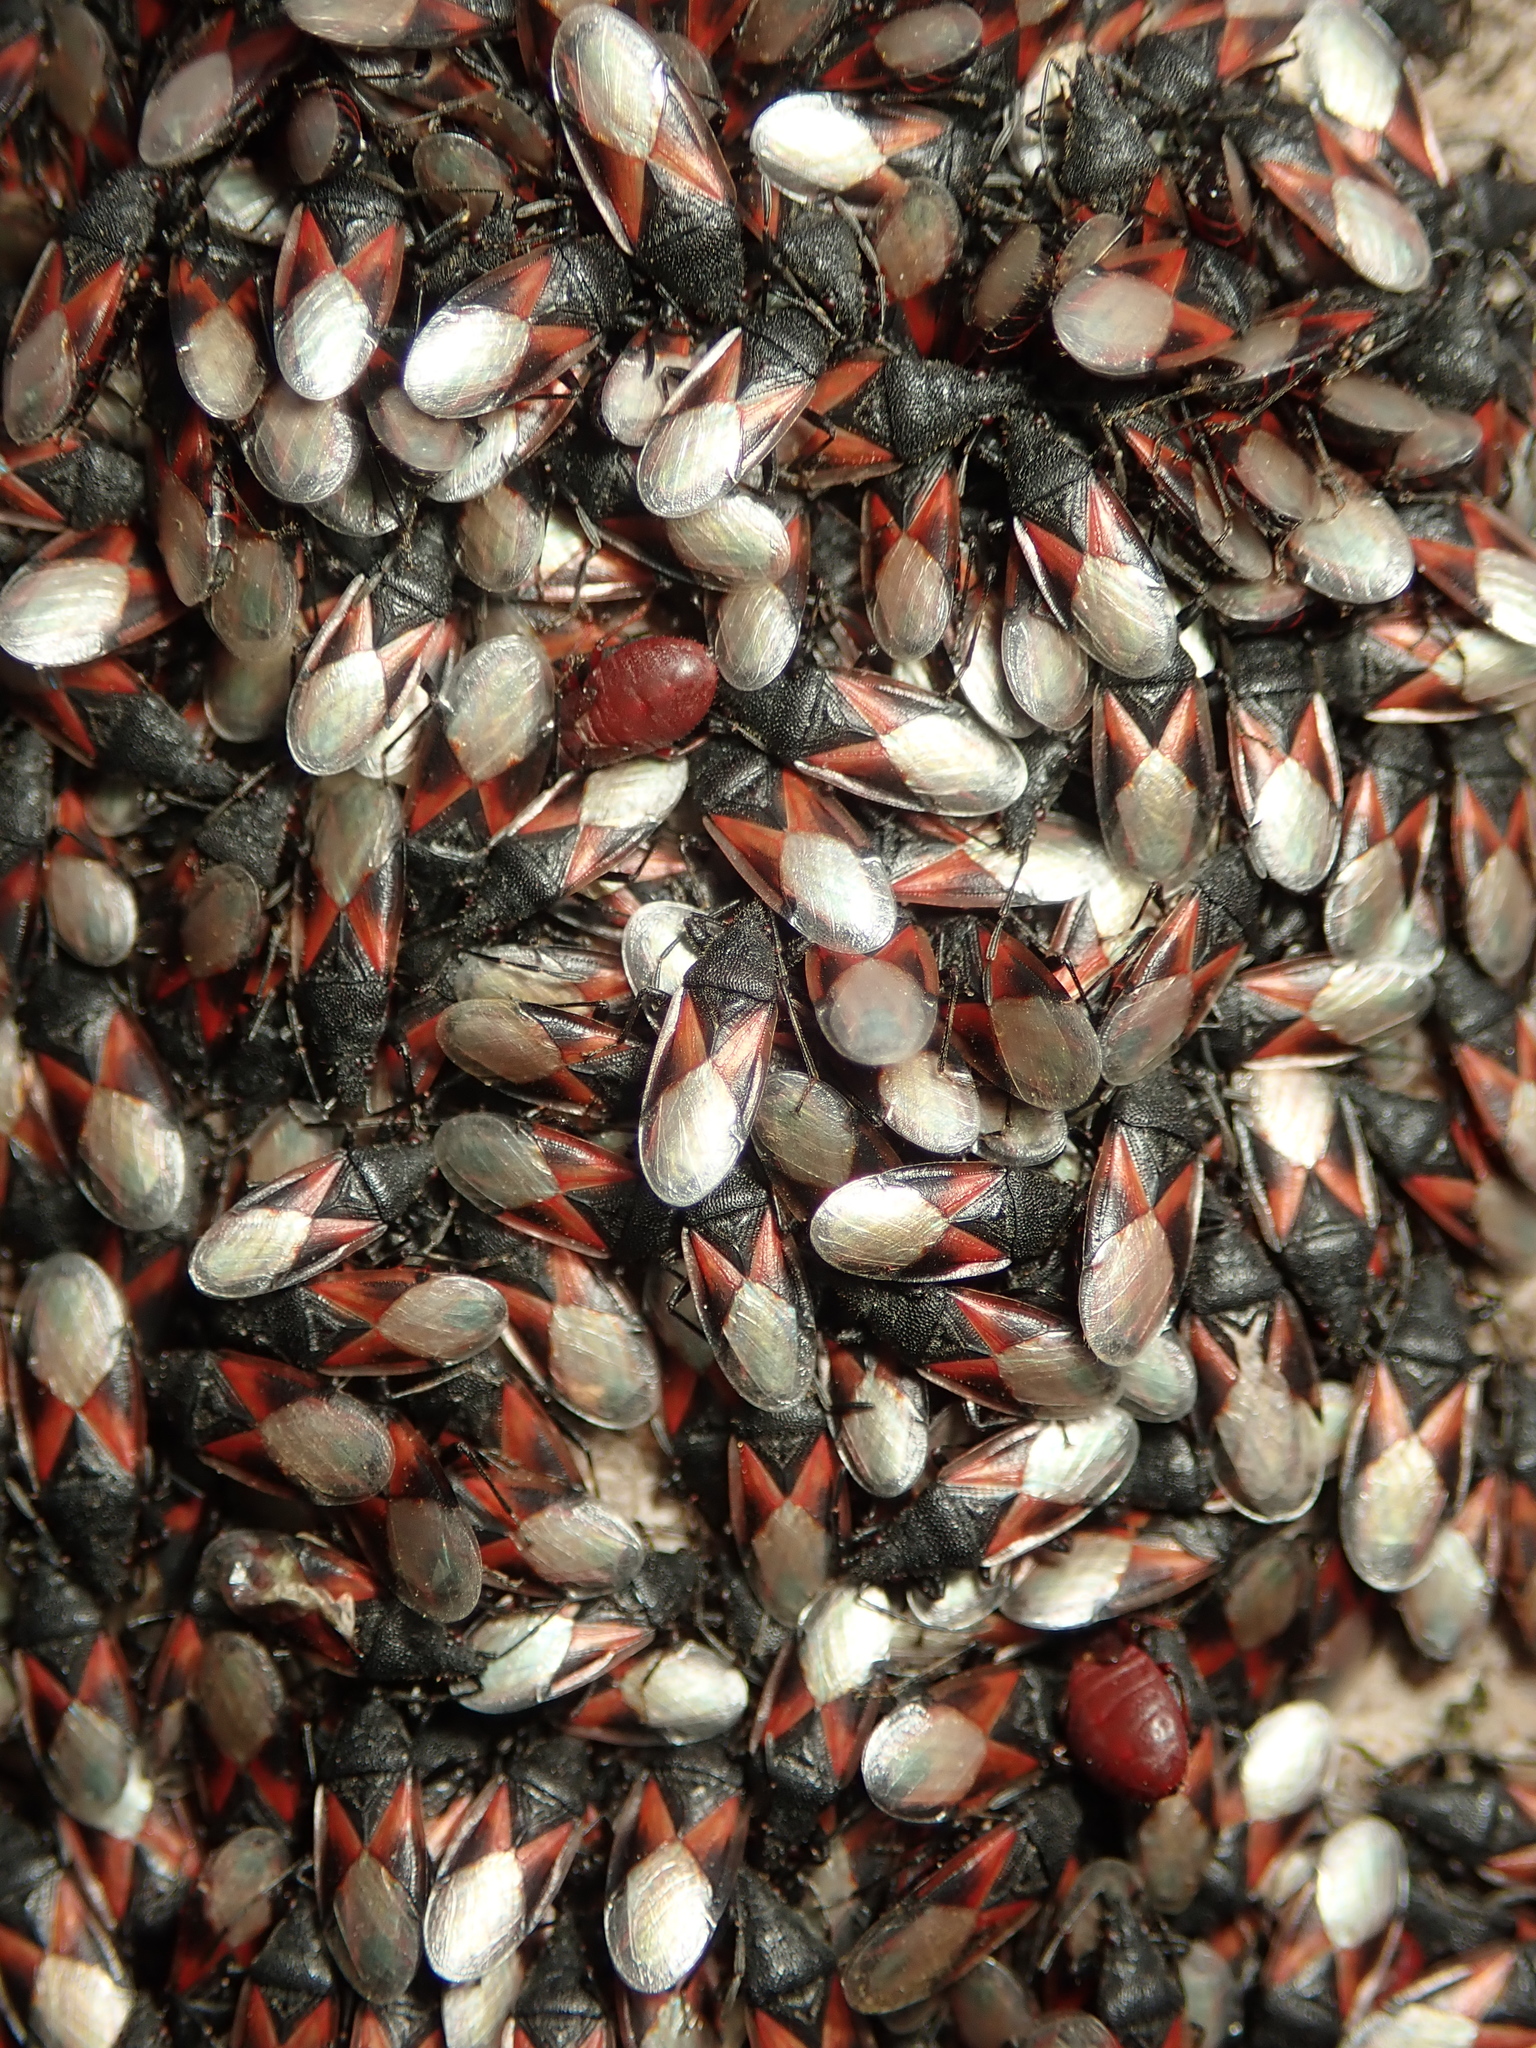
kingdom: Animalia
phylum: Arthropoda
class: Insecta
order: Hemiptera
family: Oxycarenidae
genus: Oxycarenus
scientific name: Oxycarenus lavaterae
